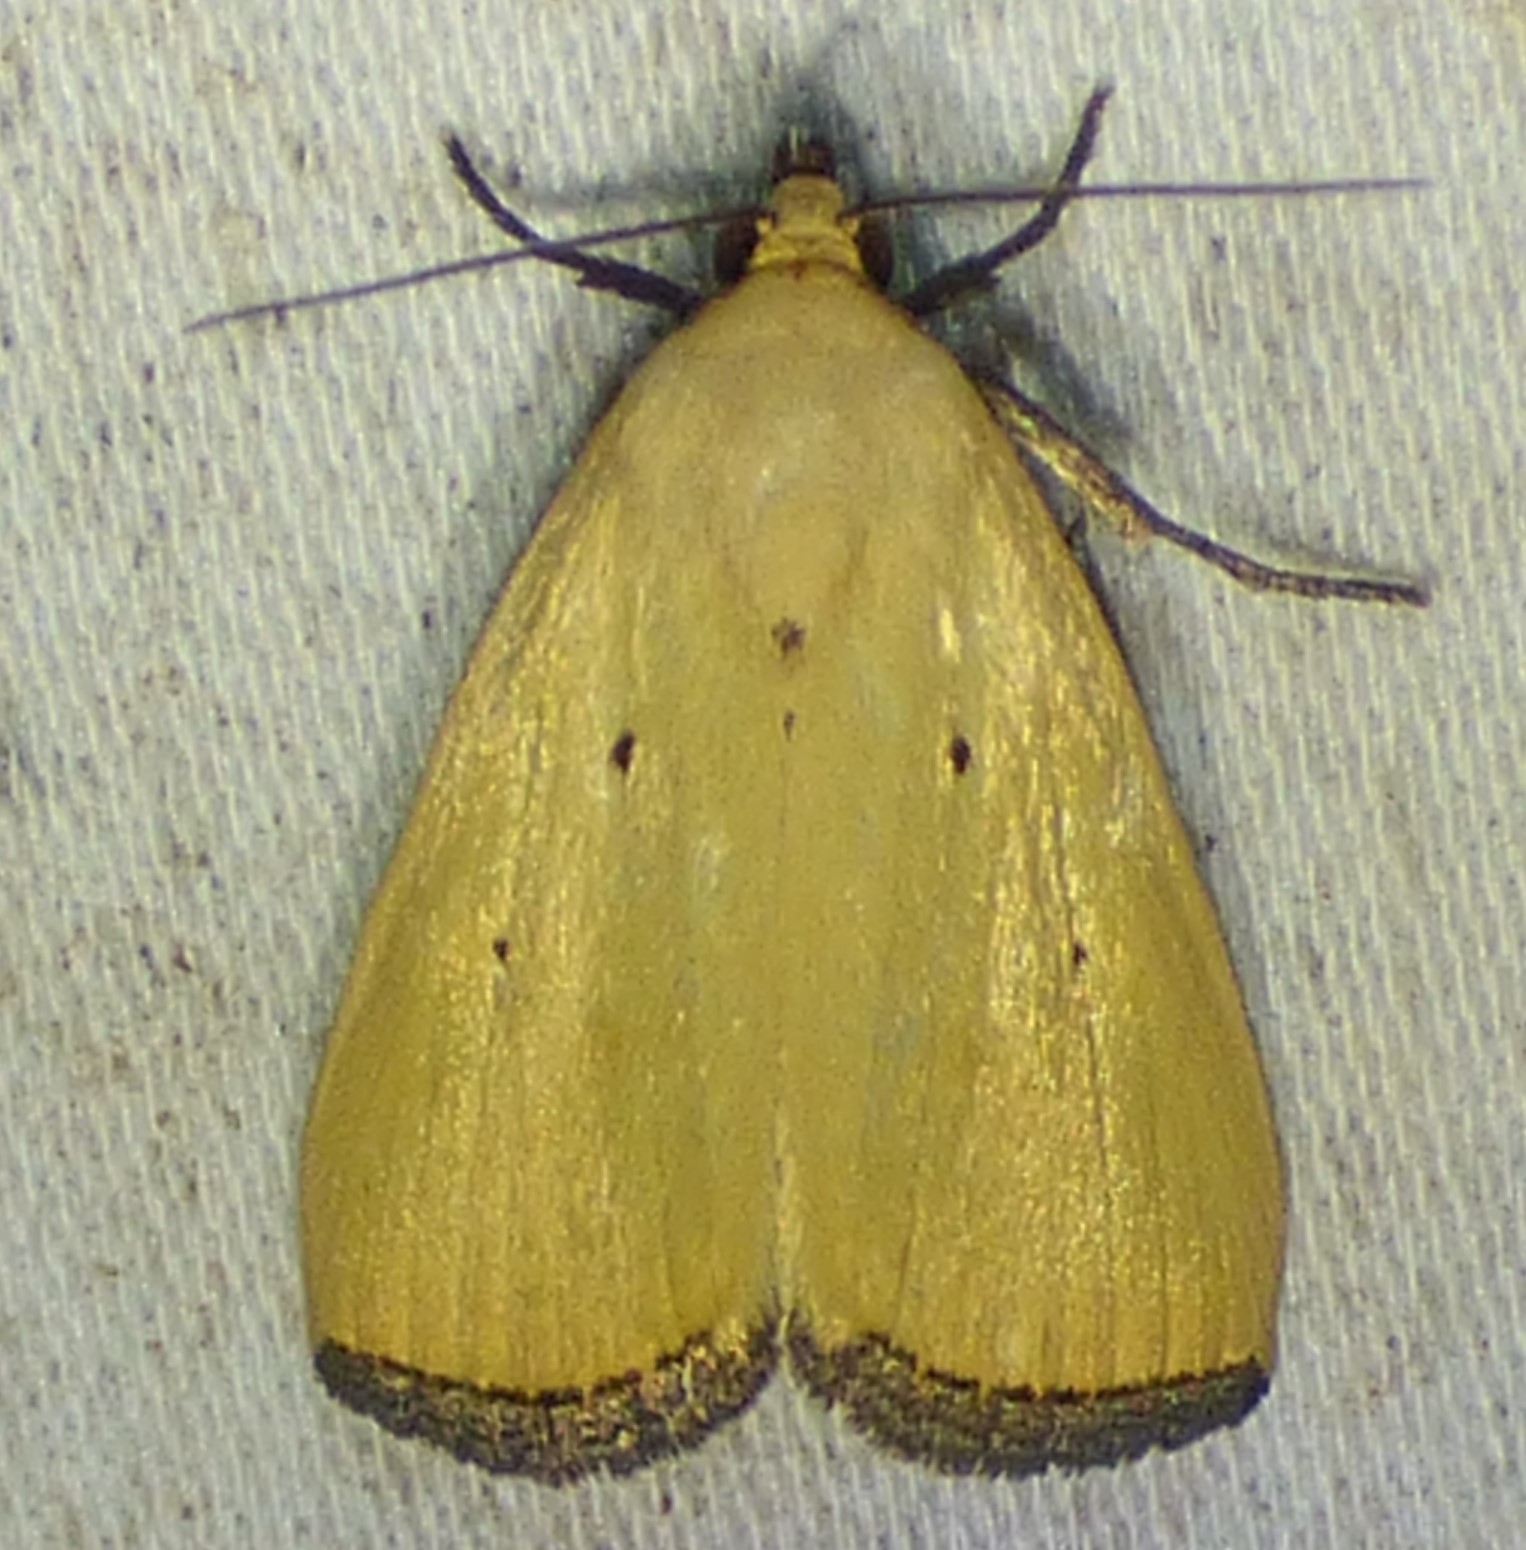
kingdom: Animalia
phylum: Arthropoda
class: Insecta
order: Lepidoptera
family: Noctuidae
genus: Marimatha
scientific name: Marimatha nigrofimbria
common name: Black-bordered lemon moth
